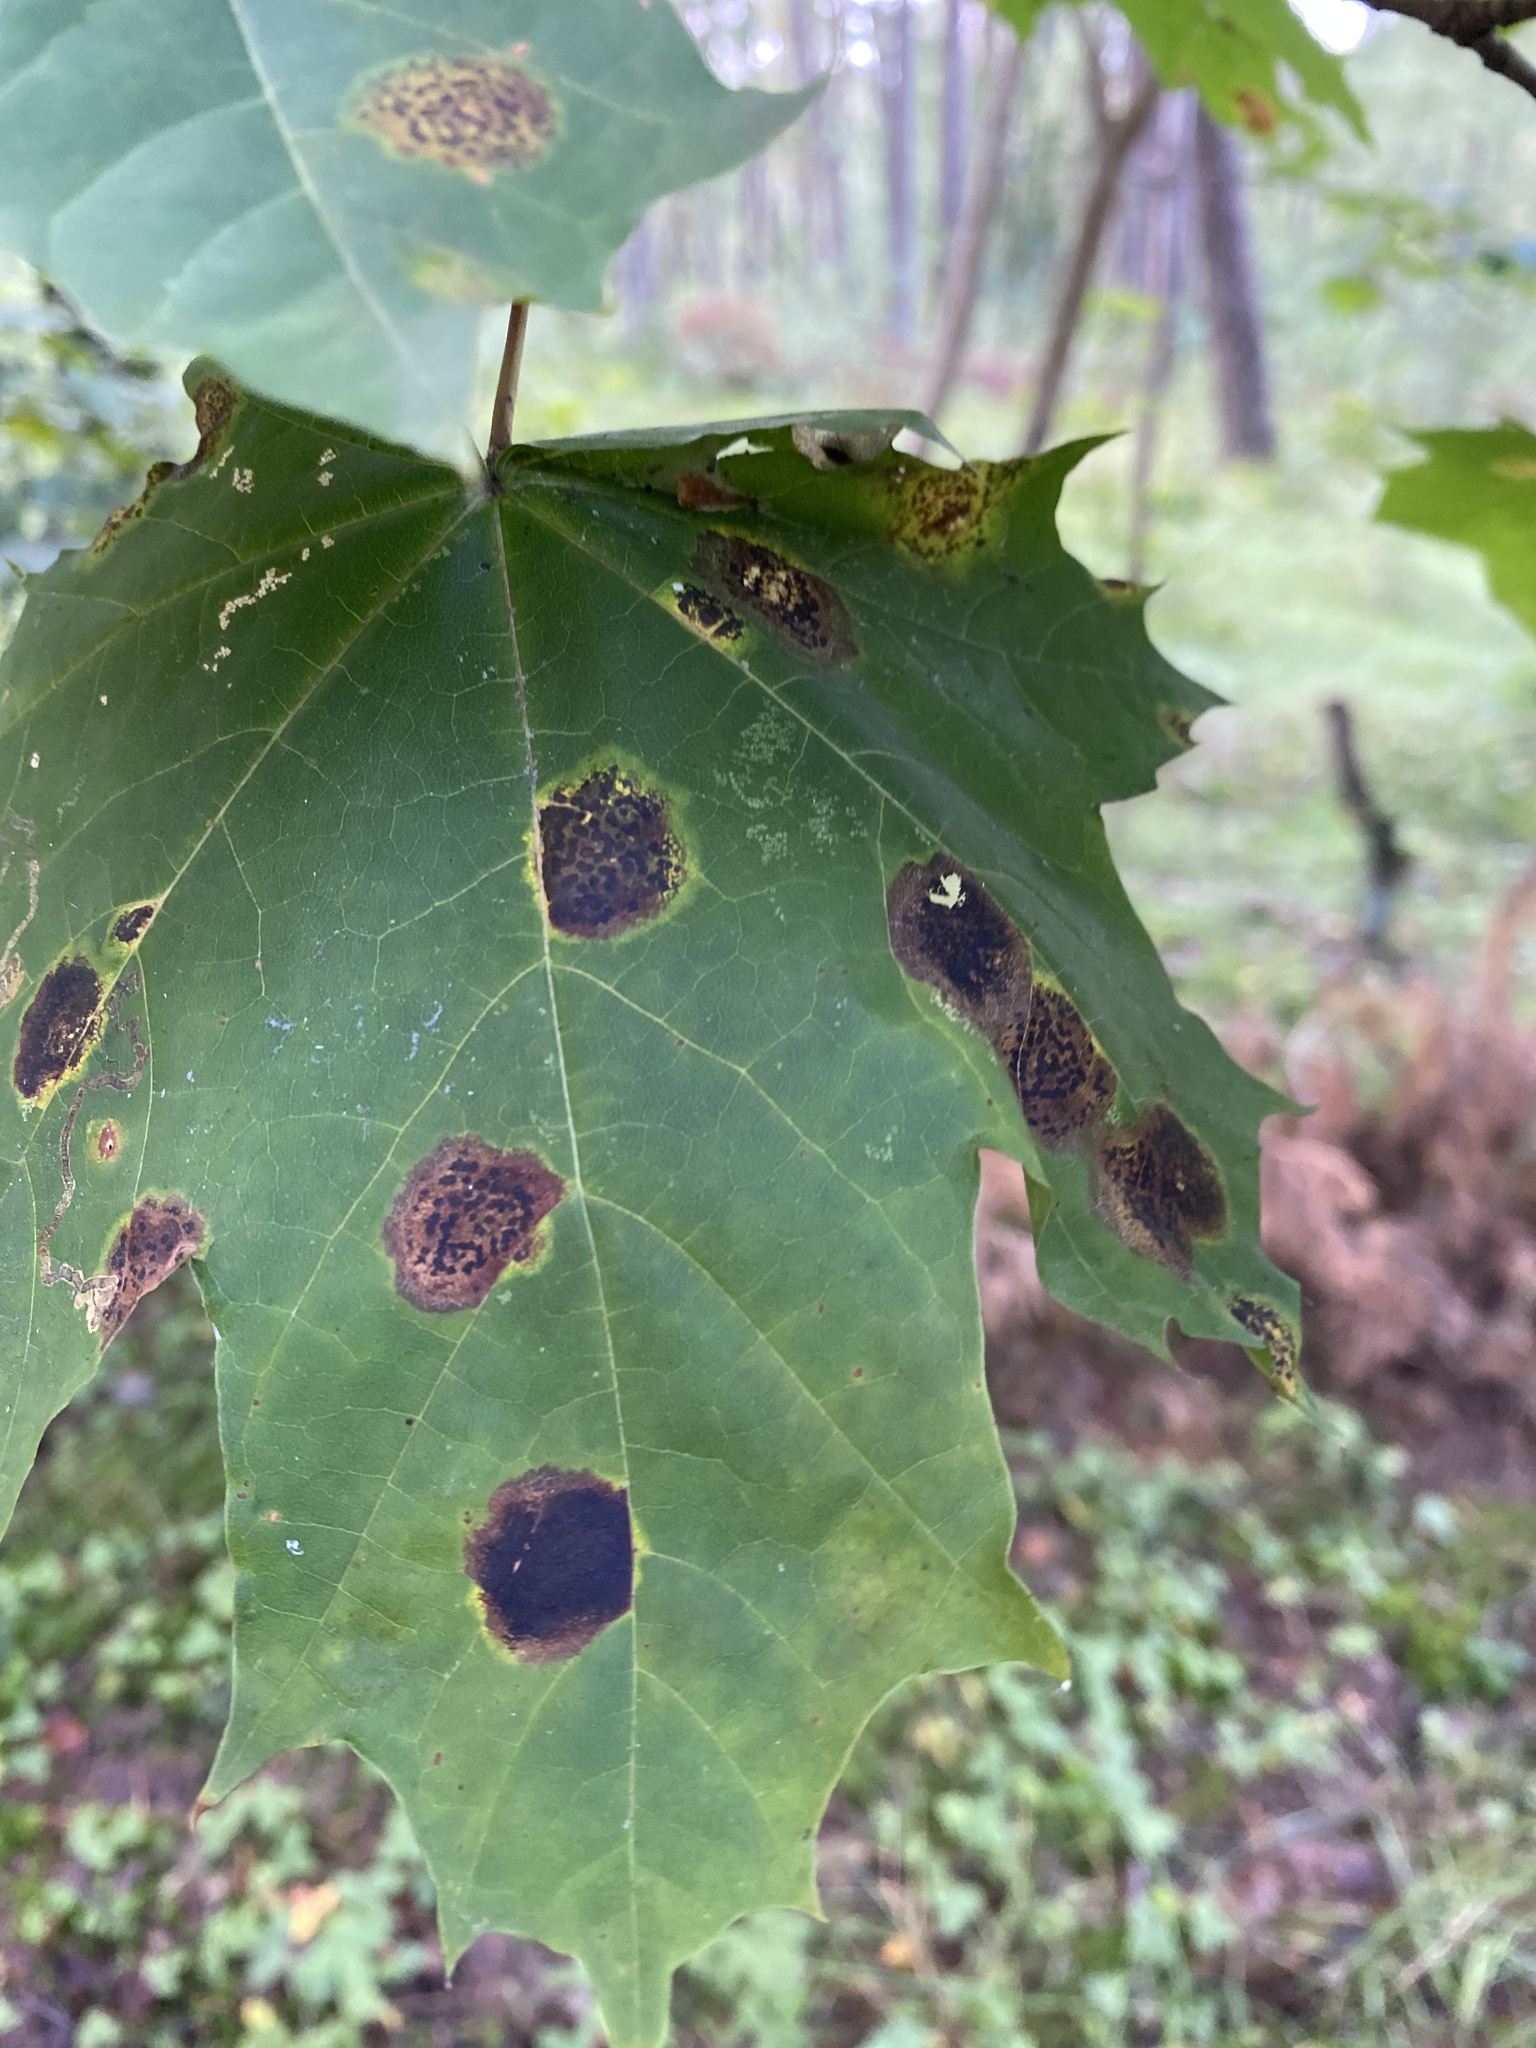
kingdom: Fungi
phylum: Ascomycota
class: Leotiomycetes
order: Rhytismatales
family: Rhytismataceae
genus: Rhytisma
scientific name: Rhytisma acerinum
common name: European tar spot
